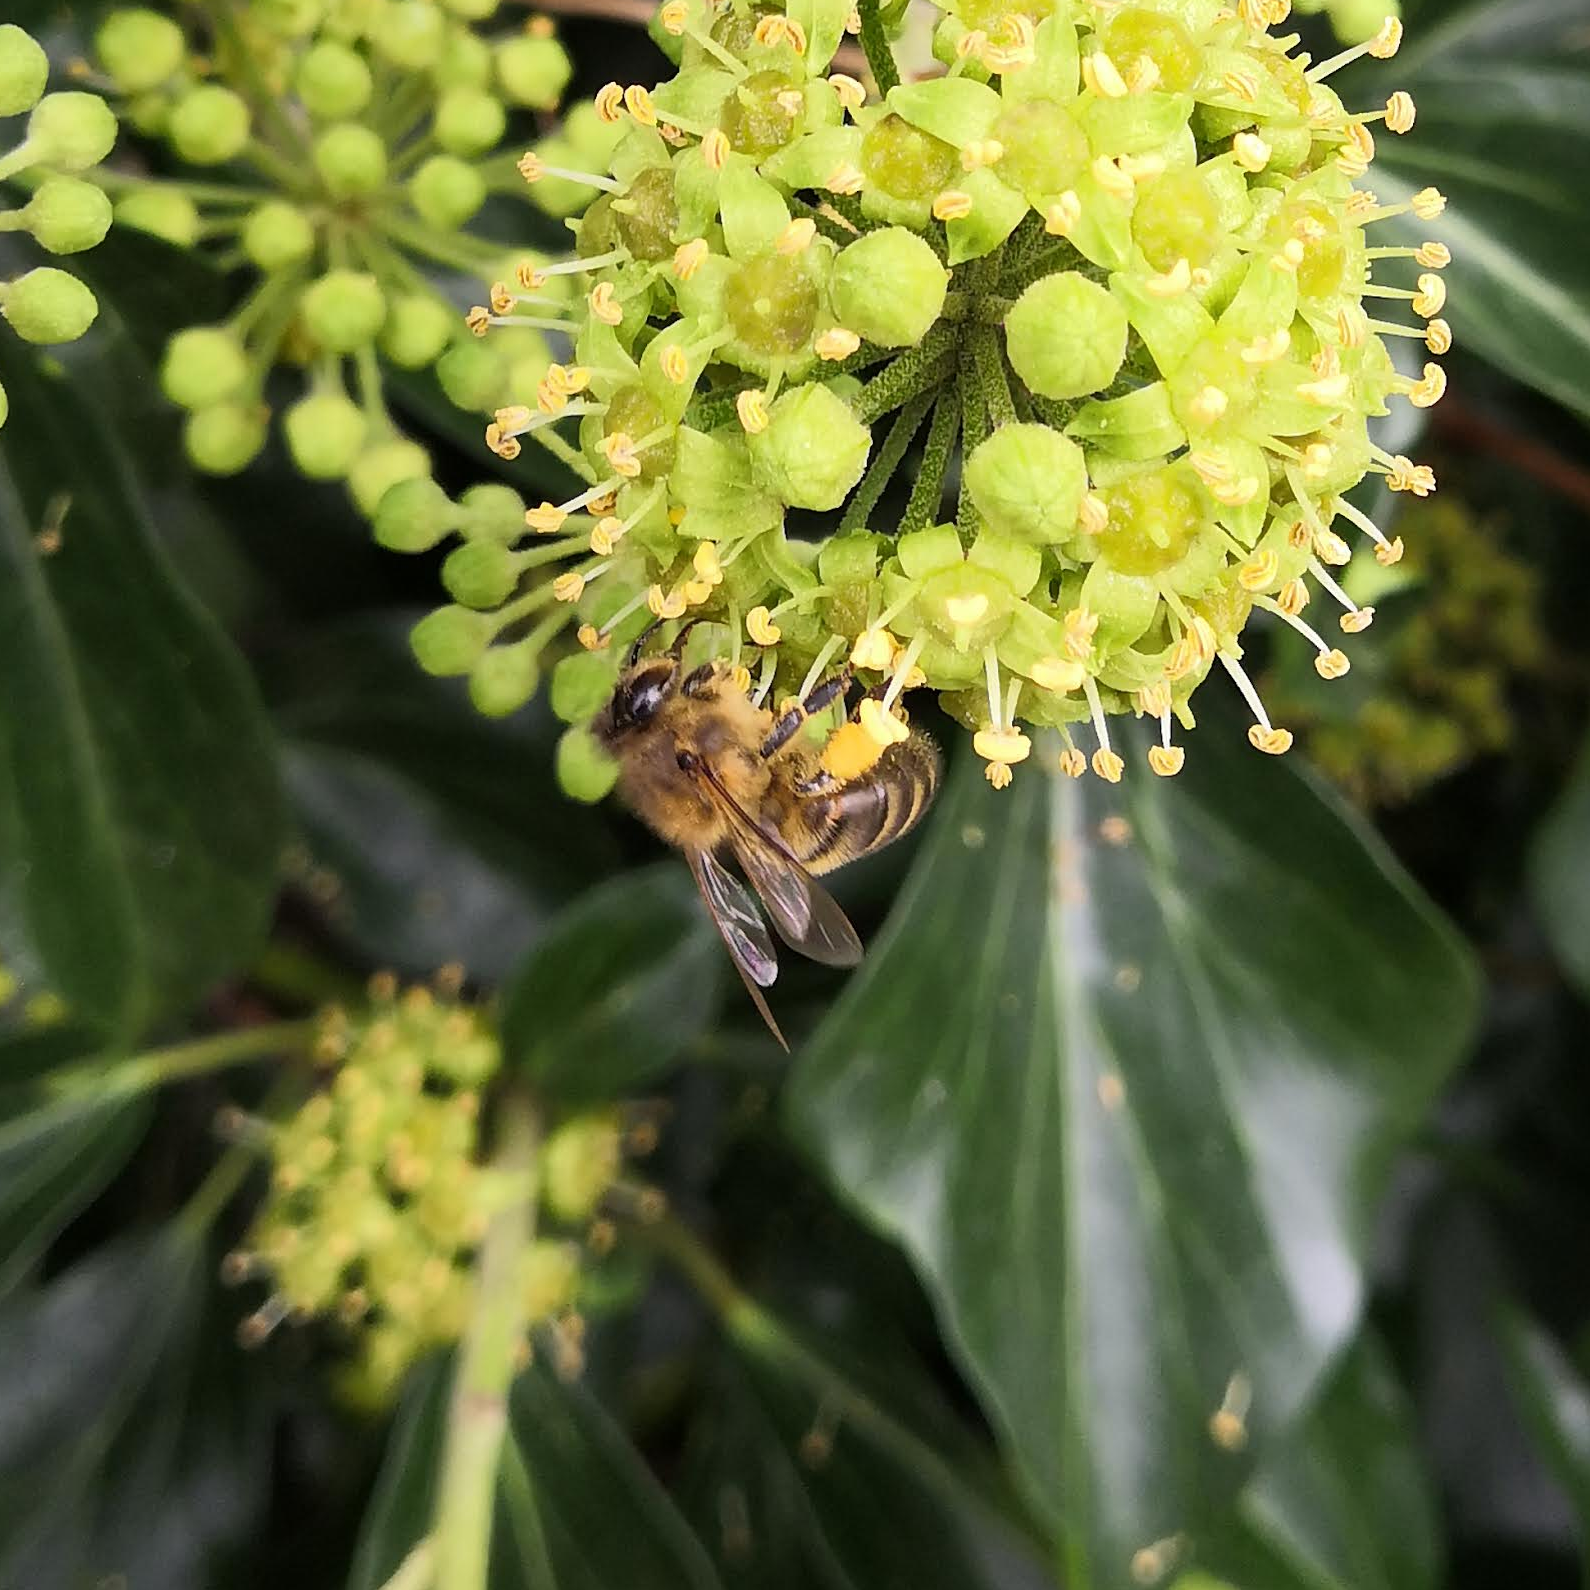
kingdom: Animalia
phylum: Arthropoda
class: Insecta
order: Hymenoptera
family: Apidae
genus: Apis
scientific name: Apis mellifera
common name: Honey bee
